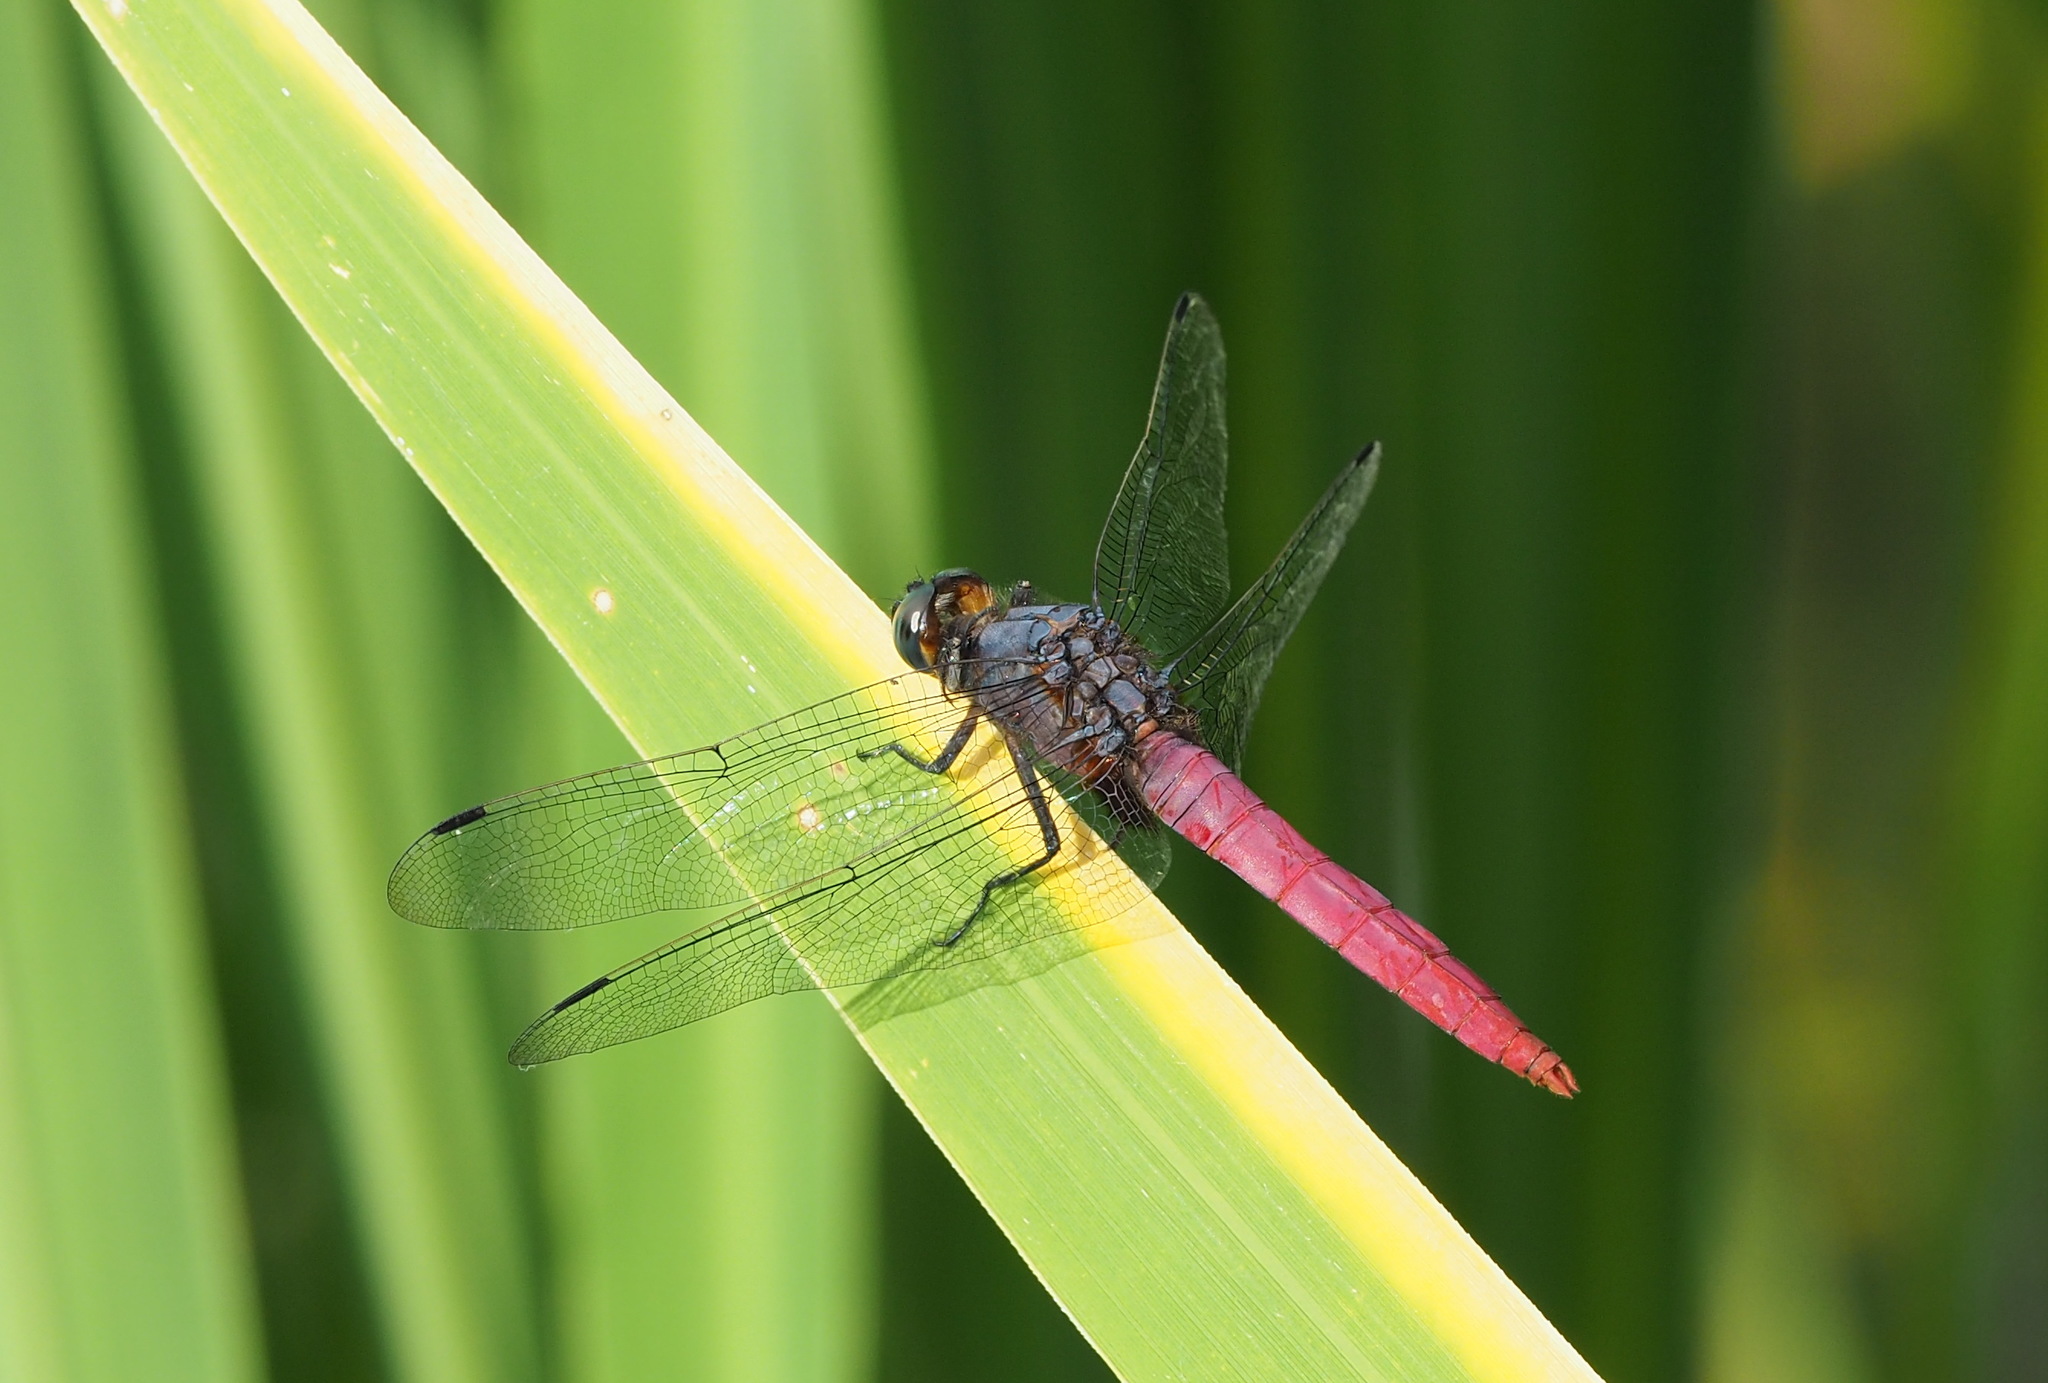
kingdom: Animalia
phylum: Arthropoda
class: Insecta
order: Odonata
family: Libellulidae
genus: Orthetrum
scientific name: Orthetrum pruinosum
